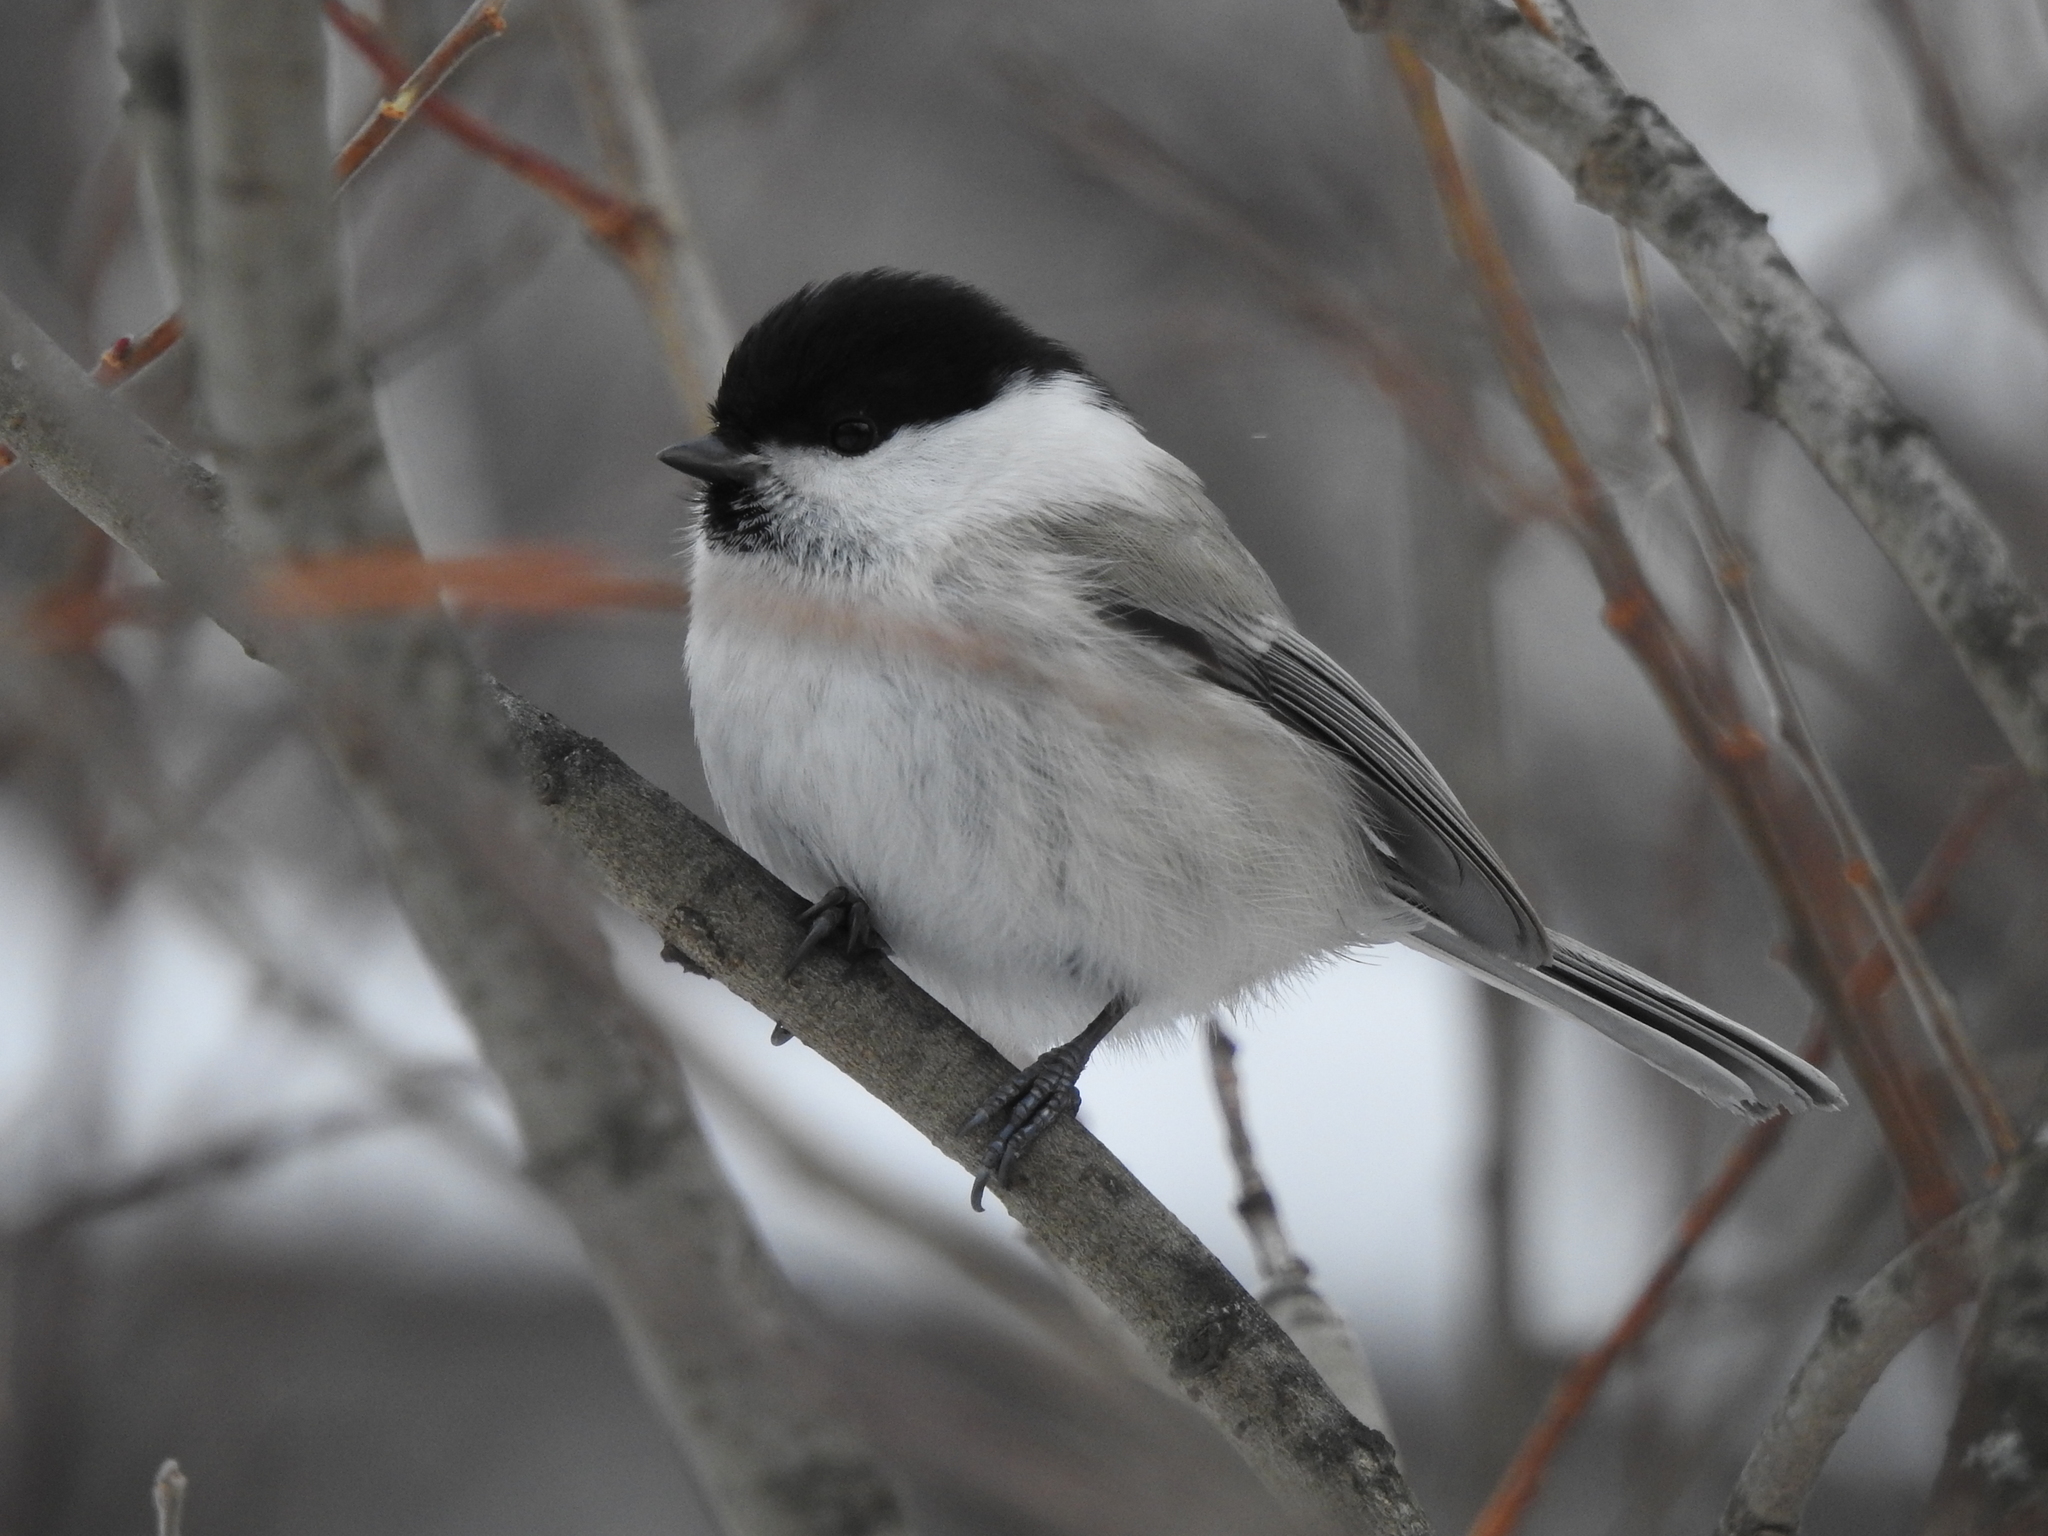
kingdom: Animalia
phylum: Chordata
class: Aves
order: Passeriformes
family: Paridae
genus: Poecile
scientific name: Poecile montanus
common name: Willow tit
